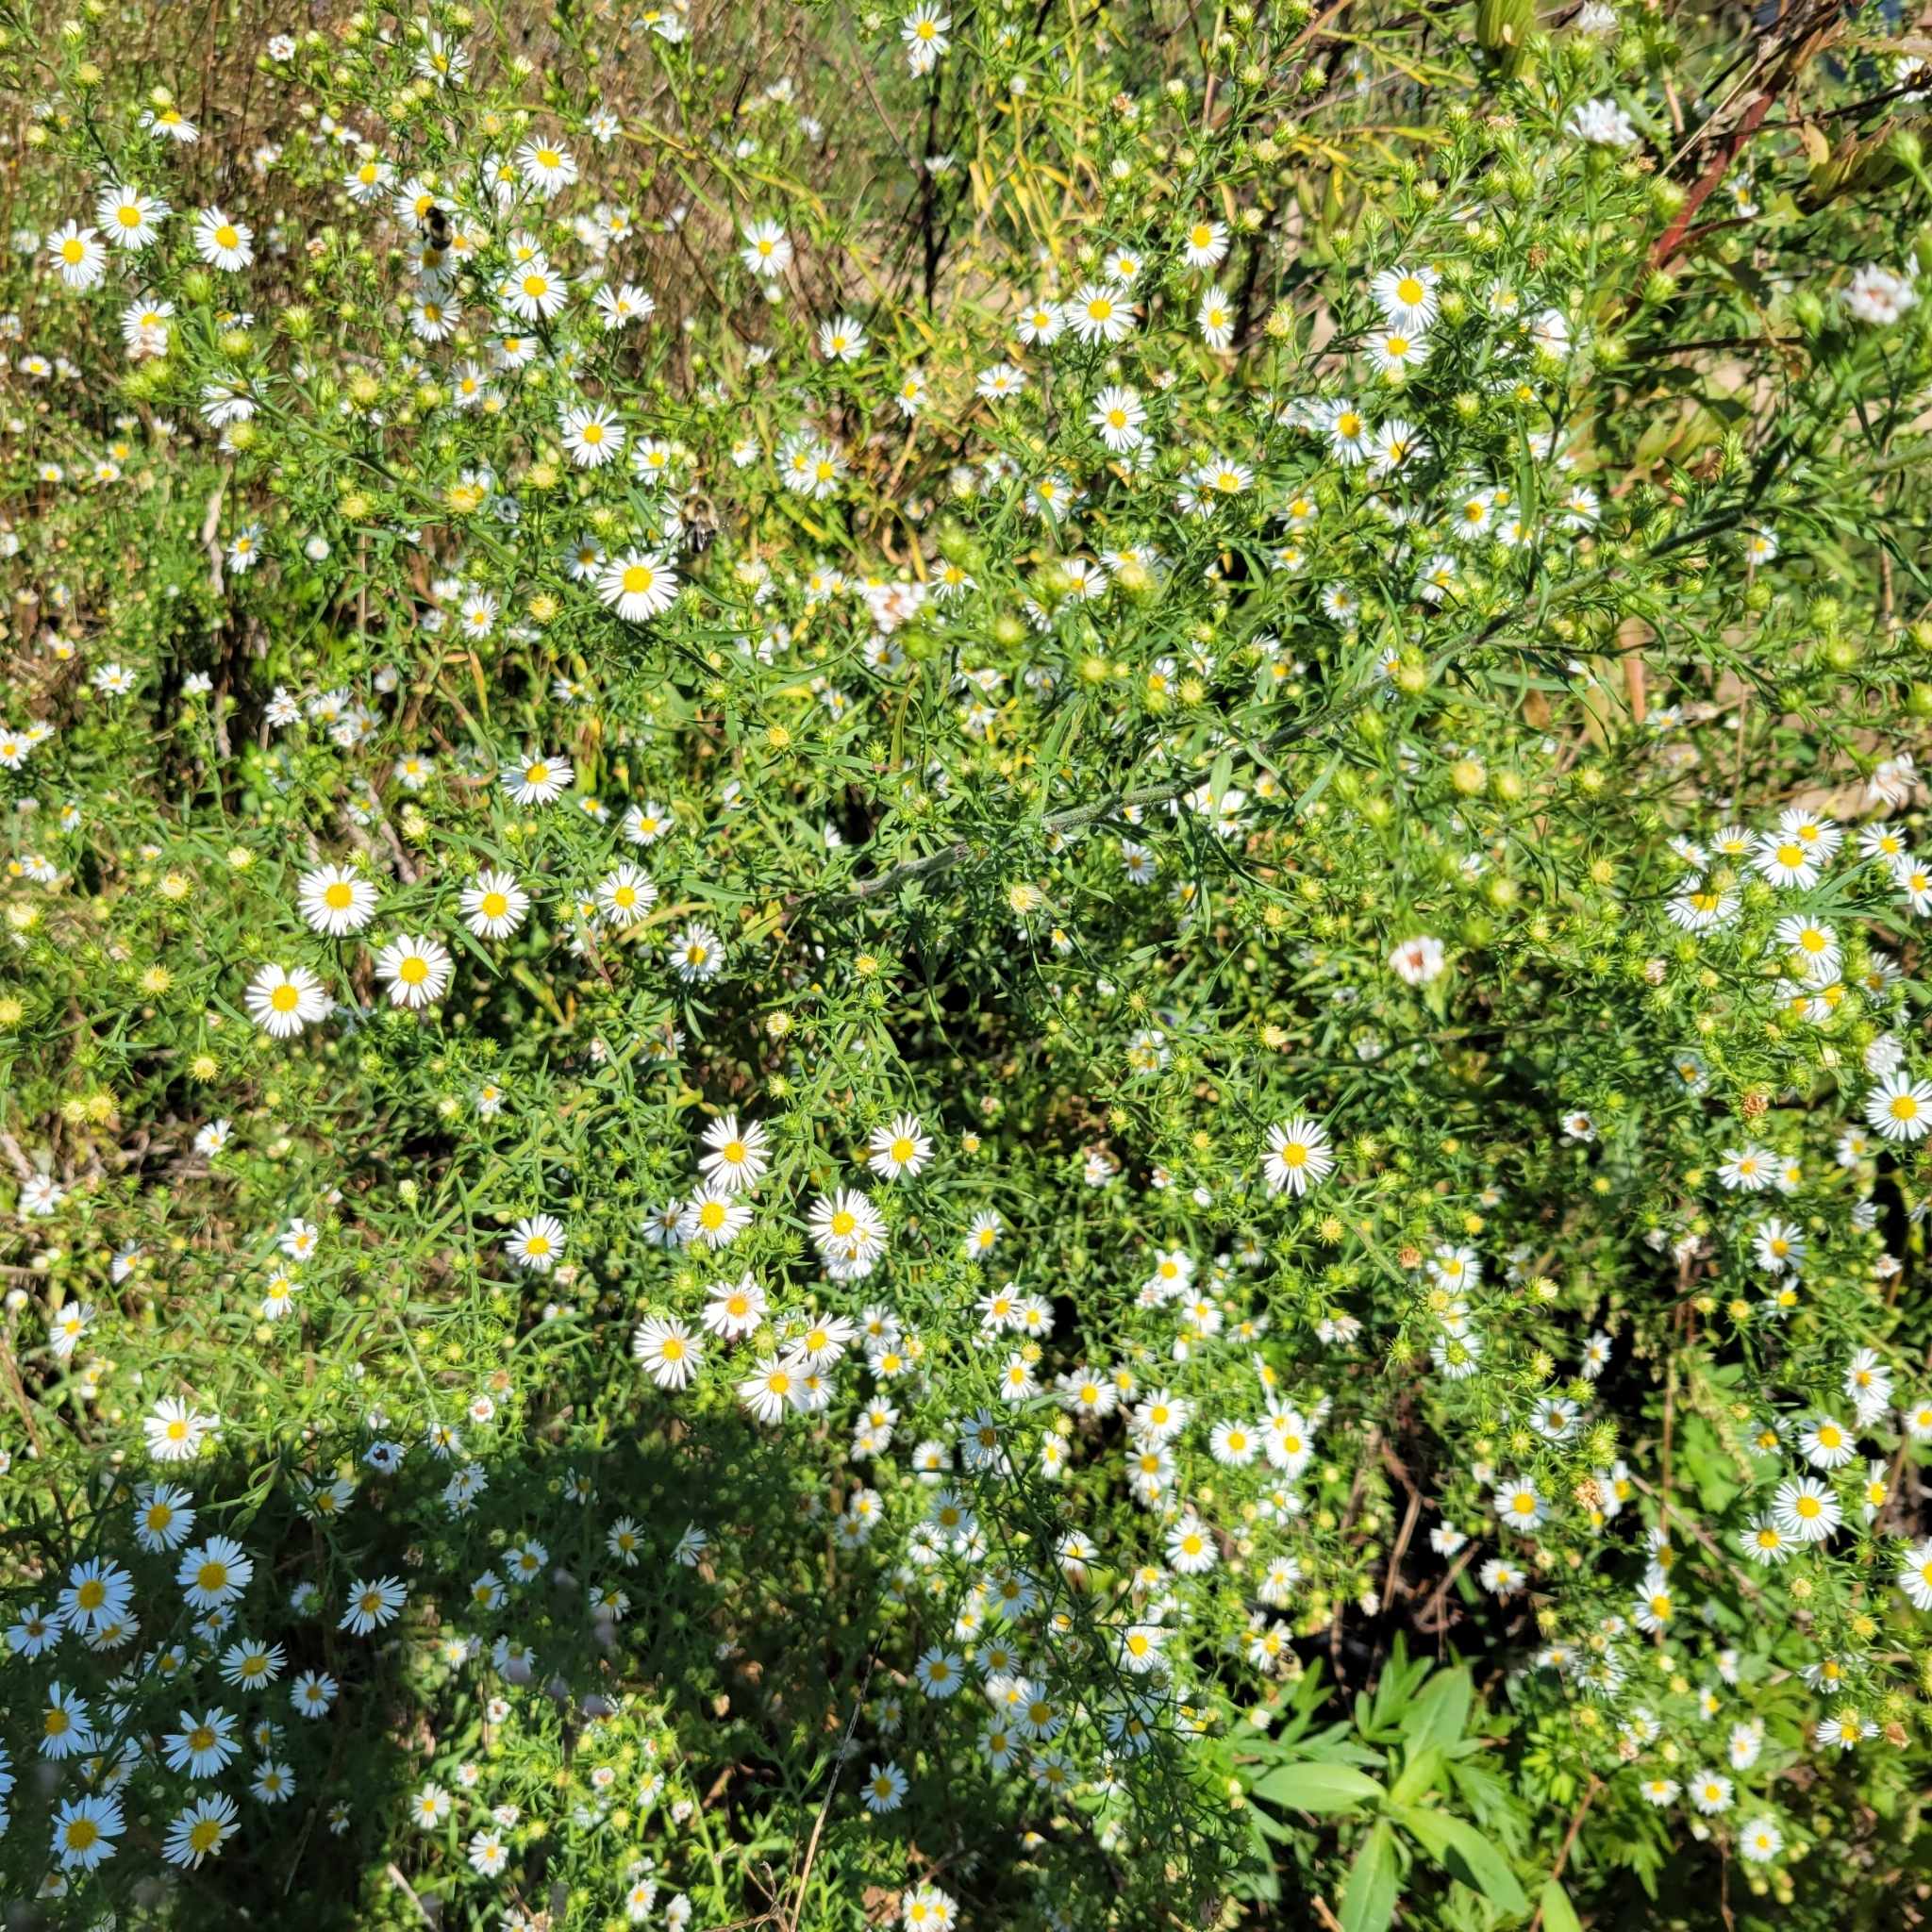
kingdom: Plantae
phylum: Tracheophyta
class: Magnoliopsida
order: Asterales
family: Asteraceae
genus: Symphyotrichum
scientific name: Symphyotrichum pilosum
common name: Awl aster
